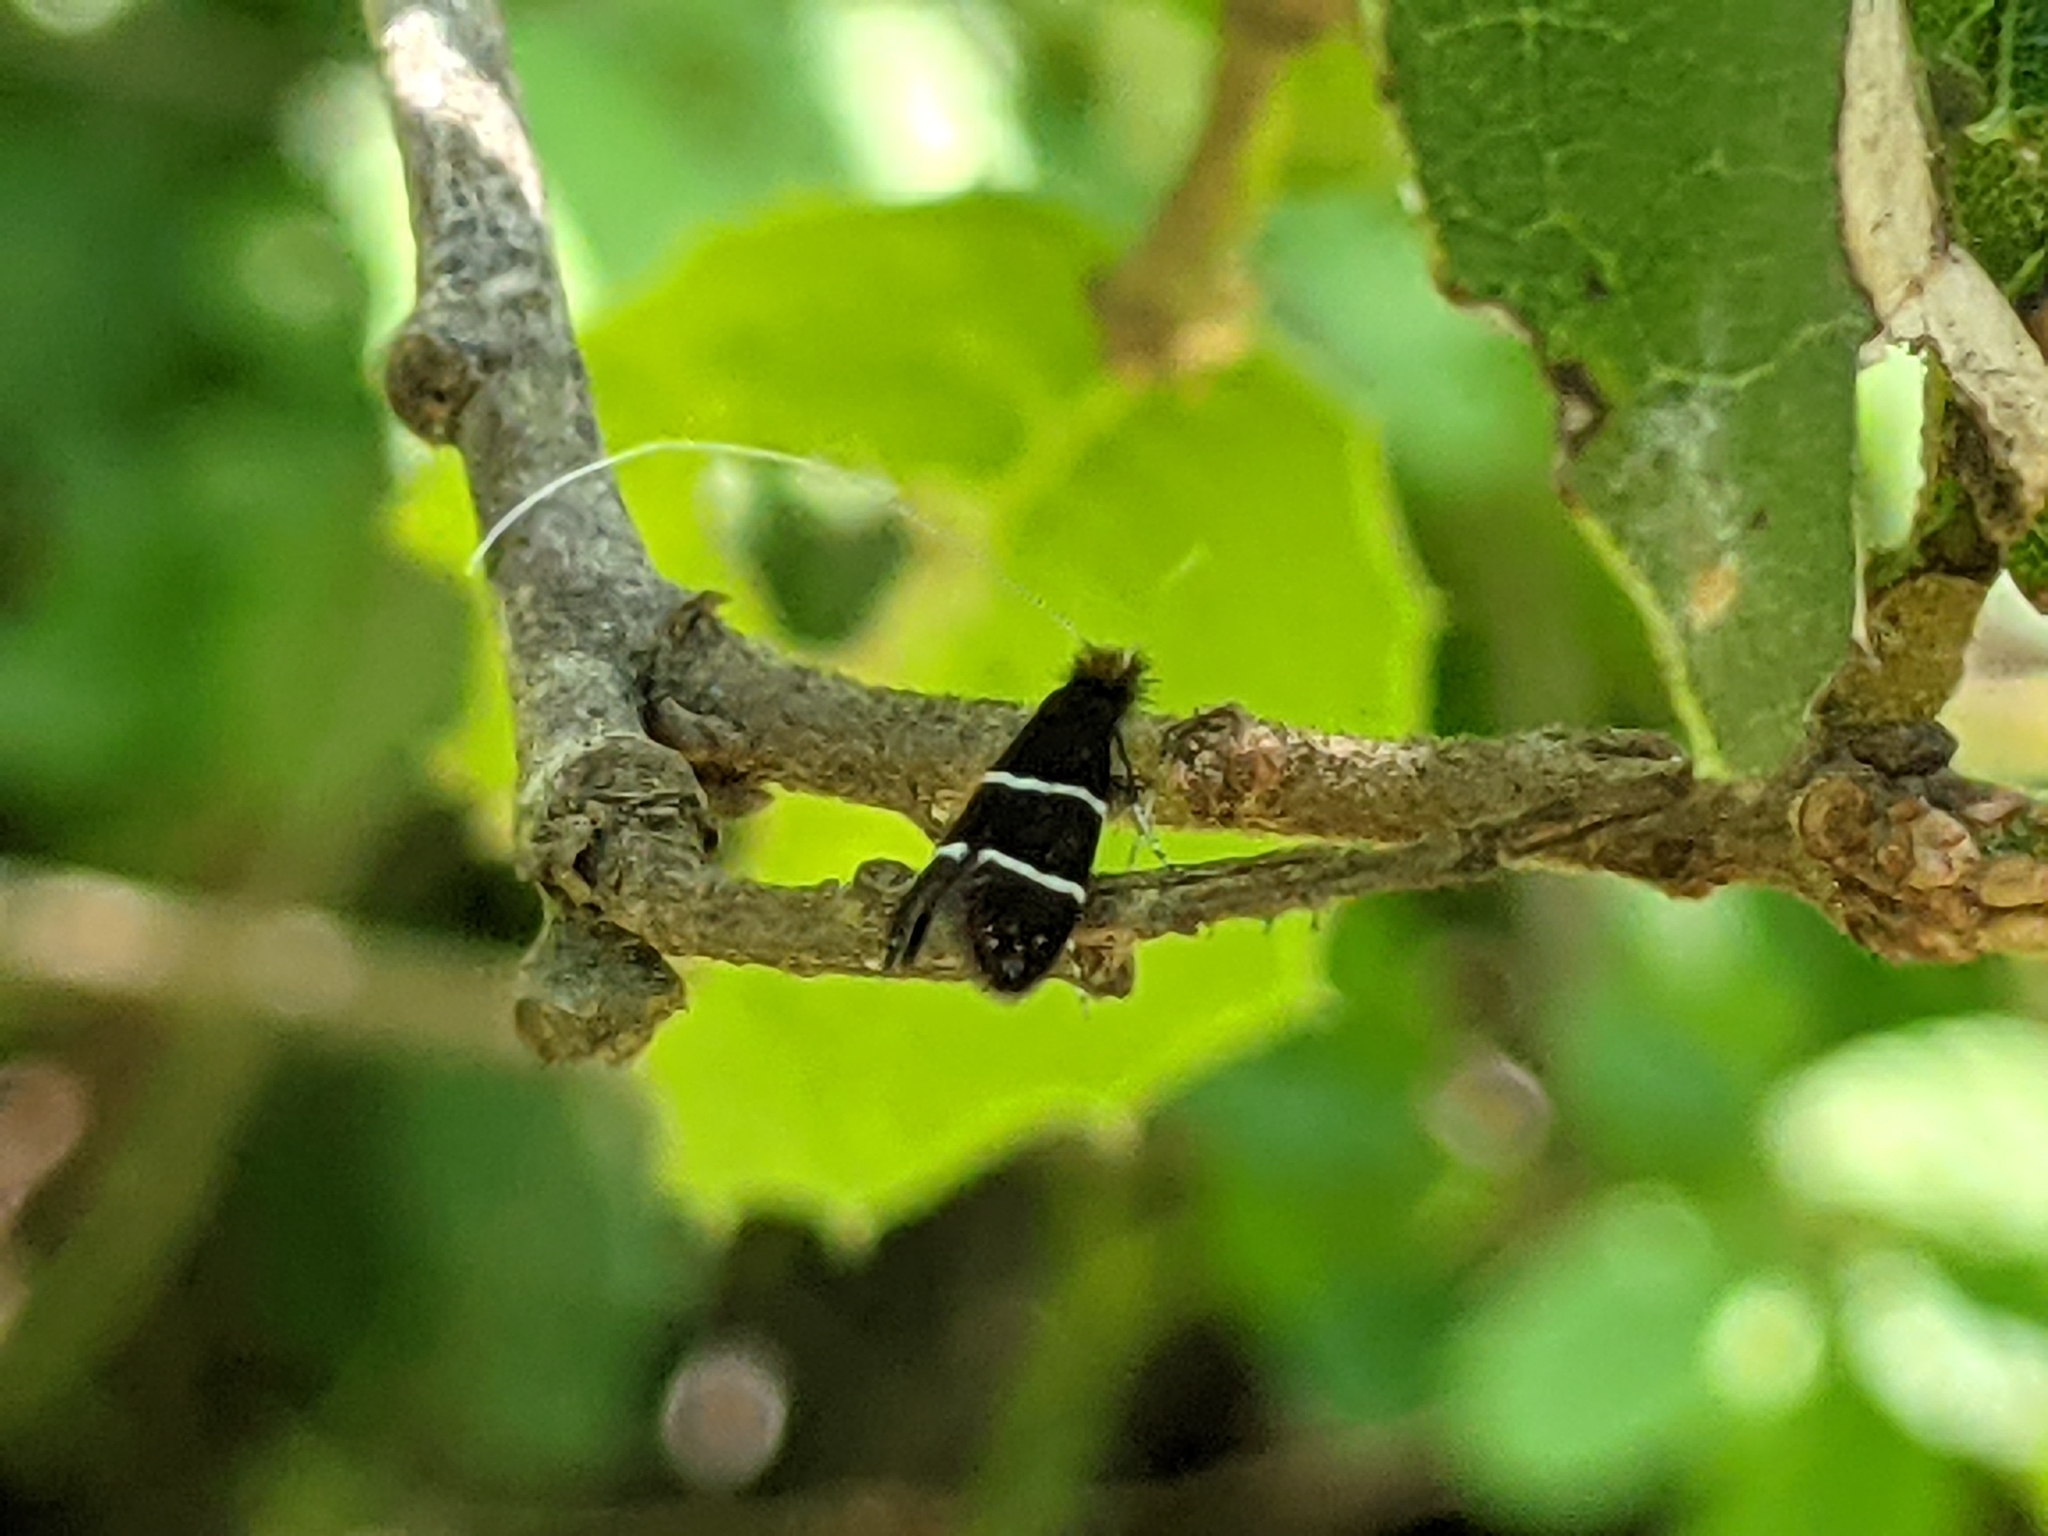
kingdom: Animalia
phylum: Arthropoda
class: Insecta
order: Lepidoptera
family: Adelidae
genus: Adela
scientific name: Adela septentrionella
